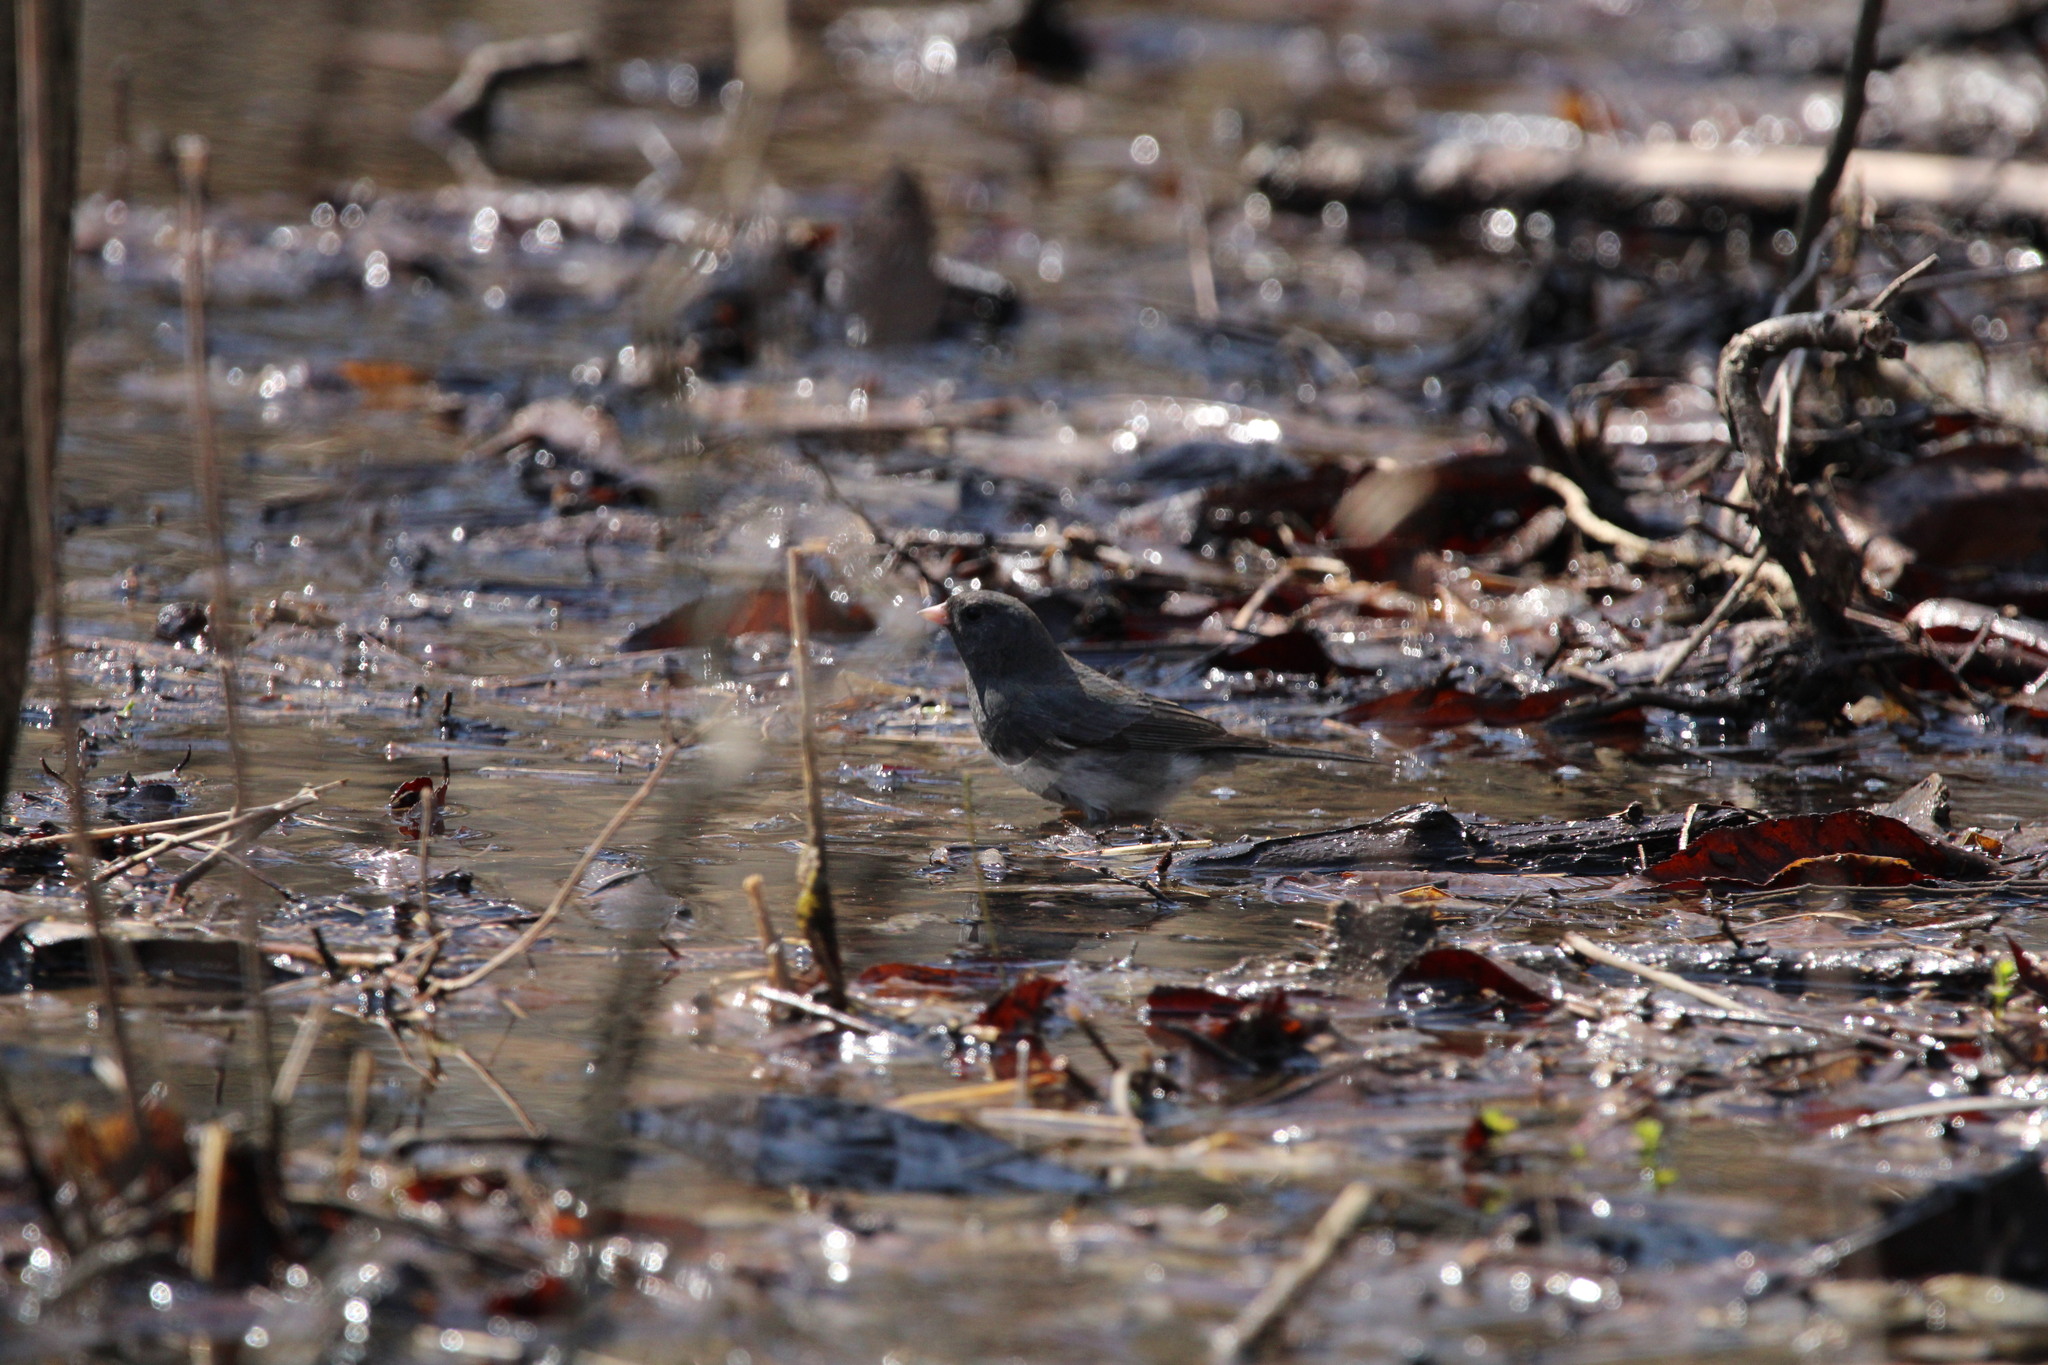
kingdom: Animalia
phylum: Chordata
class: Aves
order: Passeriformes
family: Passerellidae
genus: Junco
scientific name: Junco hyemalis
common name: Dark-eyed junco
